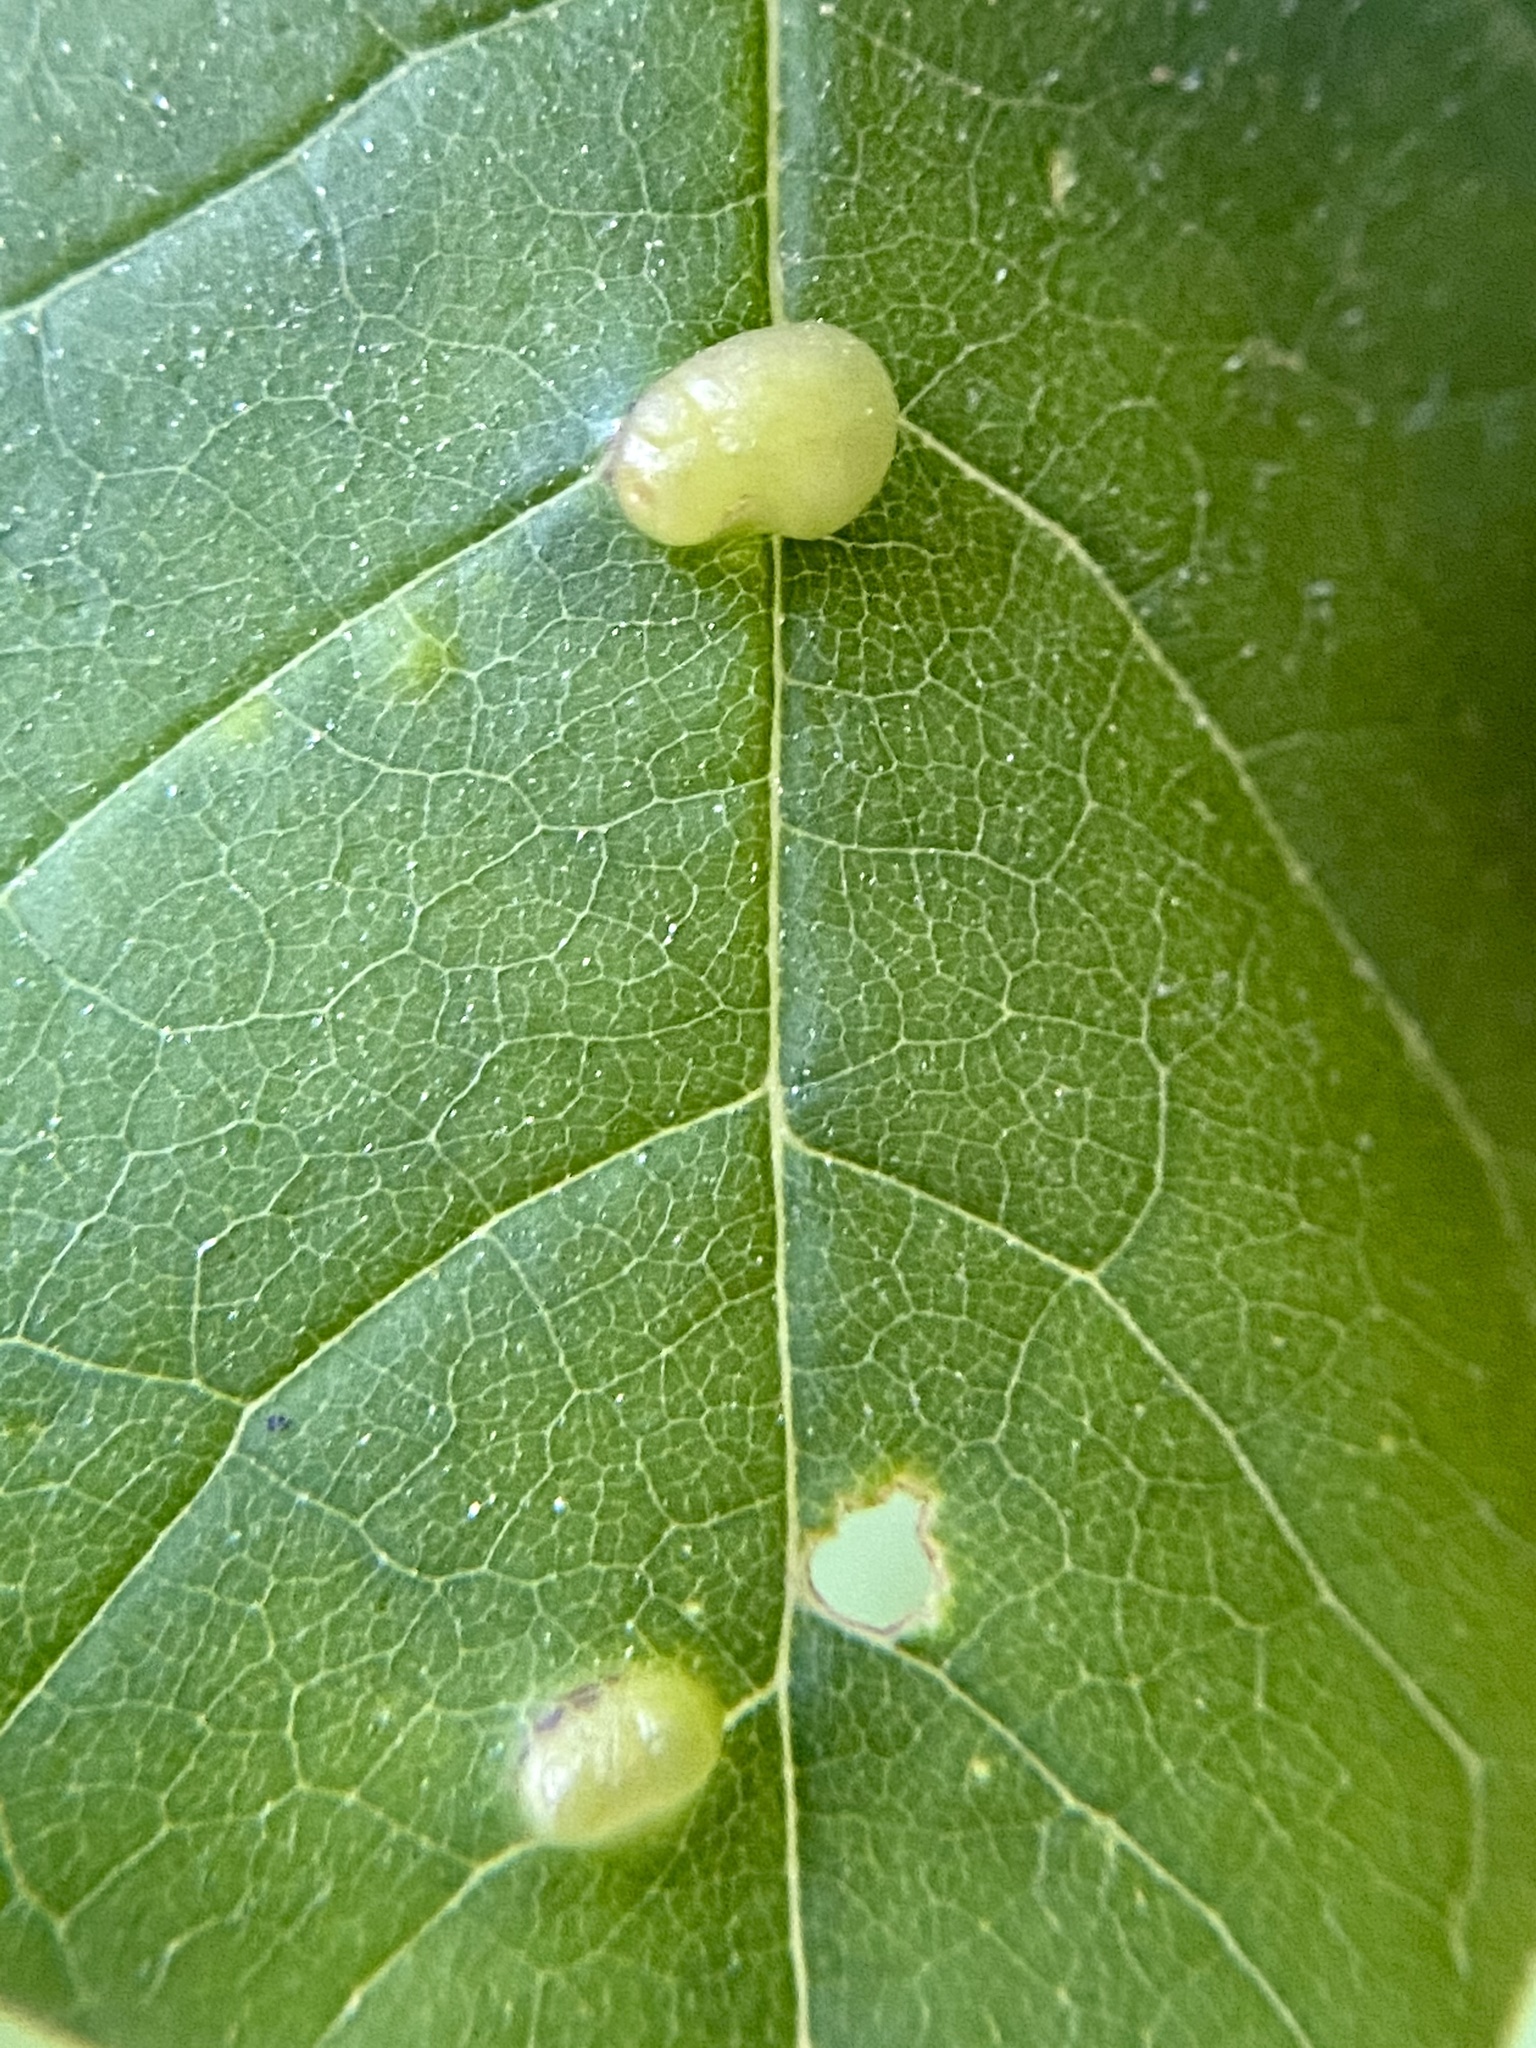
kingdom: Animalia
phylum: Arthropoda
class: Arachnida
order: Trombidiformes
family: Eriophyidae
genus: Aceria
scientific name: Aceria fraxinicola
